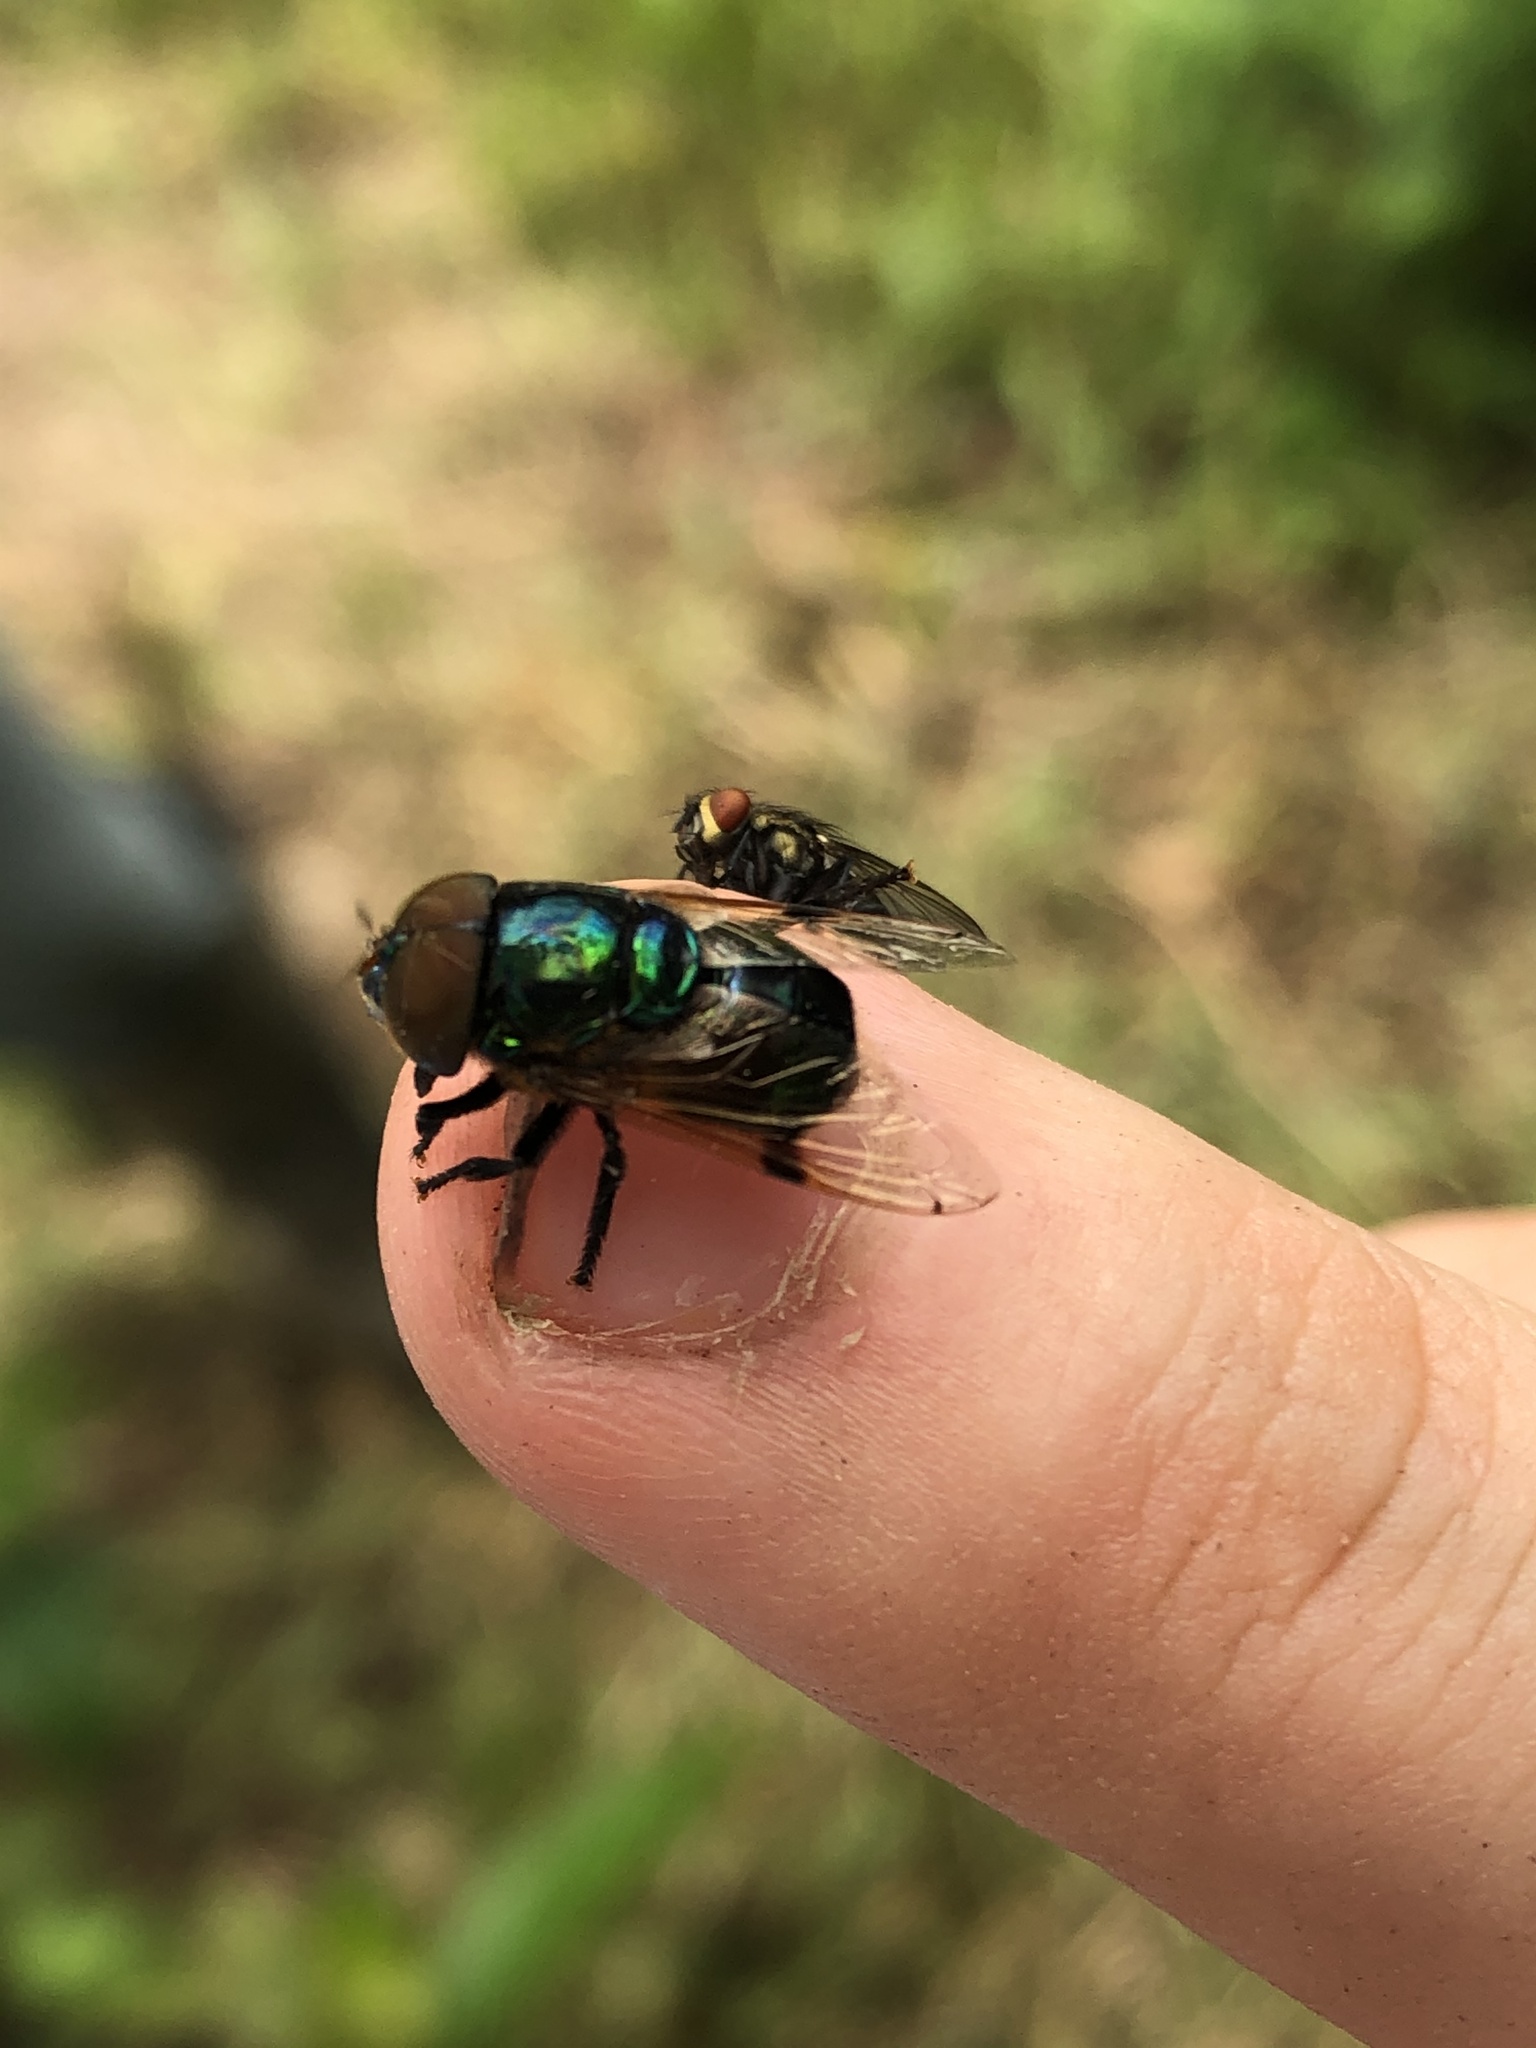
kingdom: Animalia
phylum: Arthropoda
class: Insecta
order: Diptera
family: Syrphidae
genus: Ornidia
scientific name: Ornidia major
